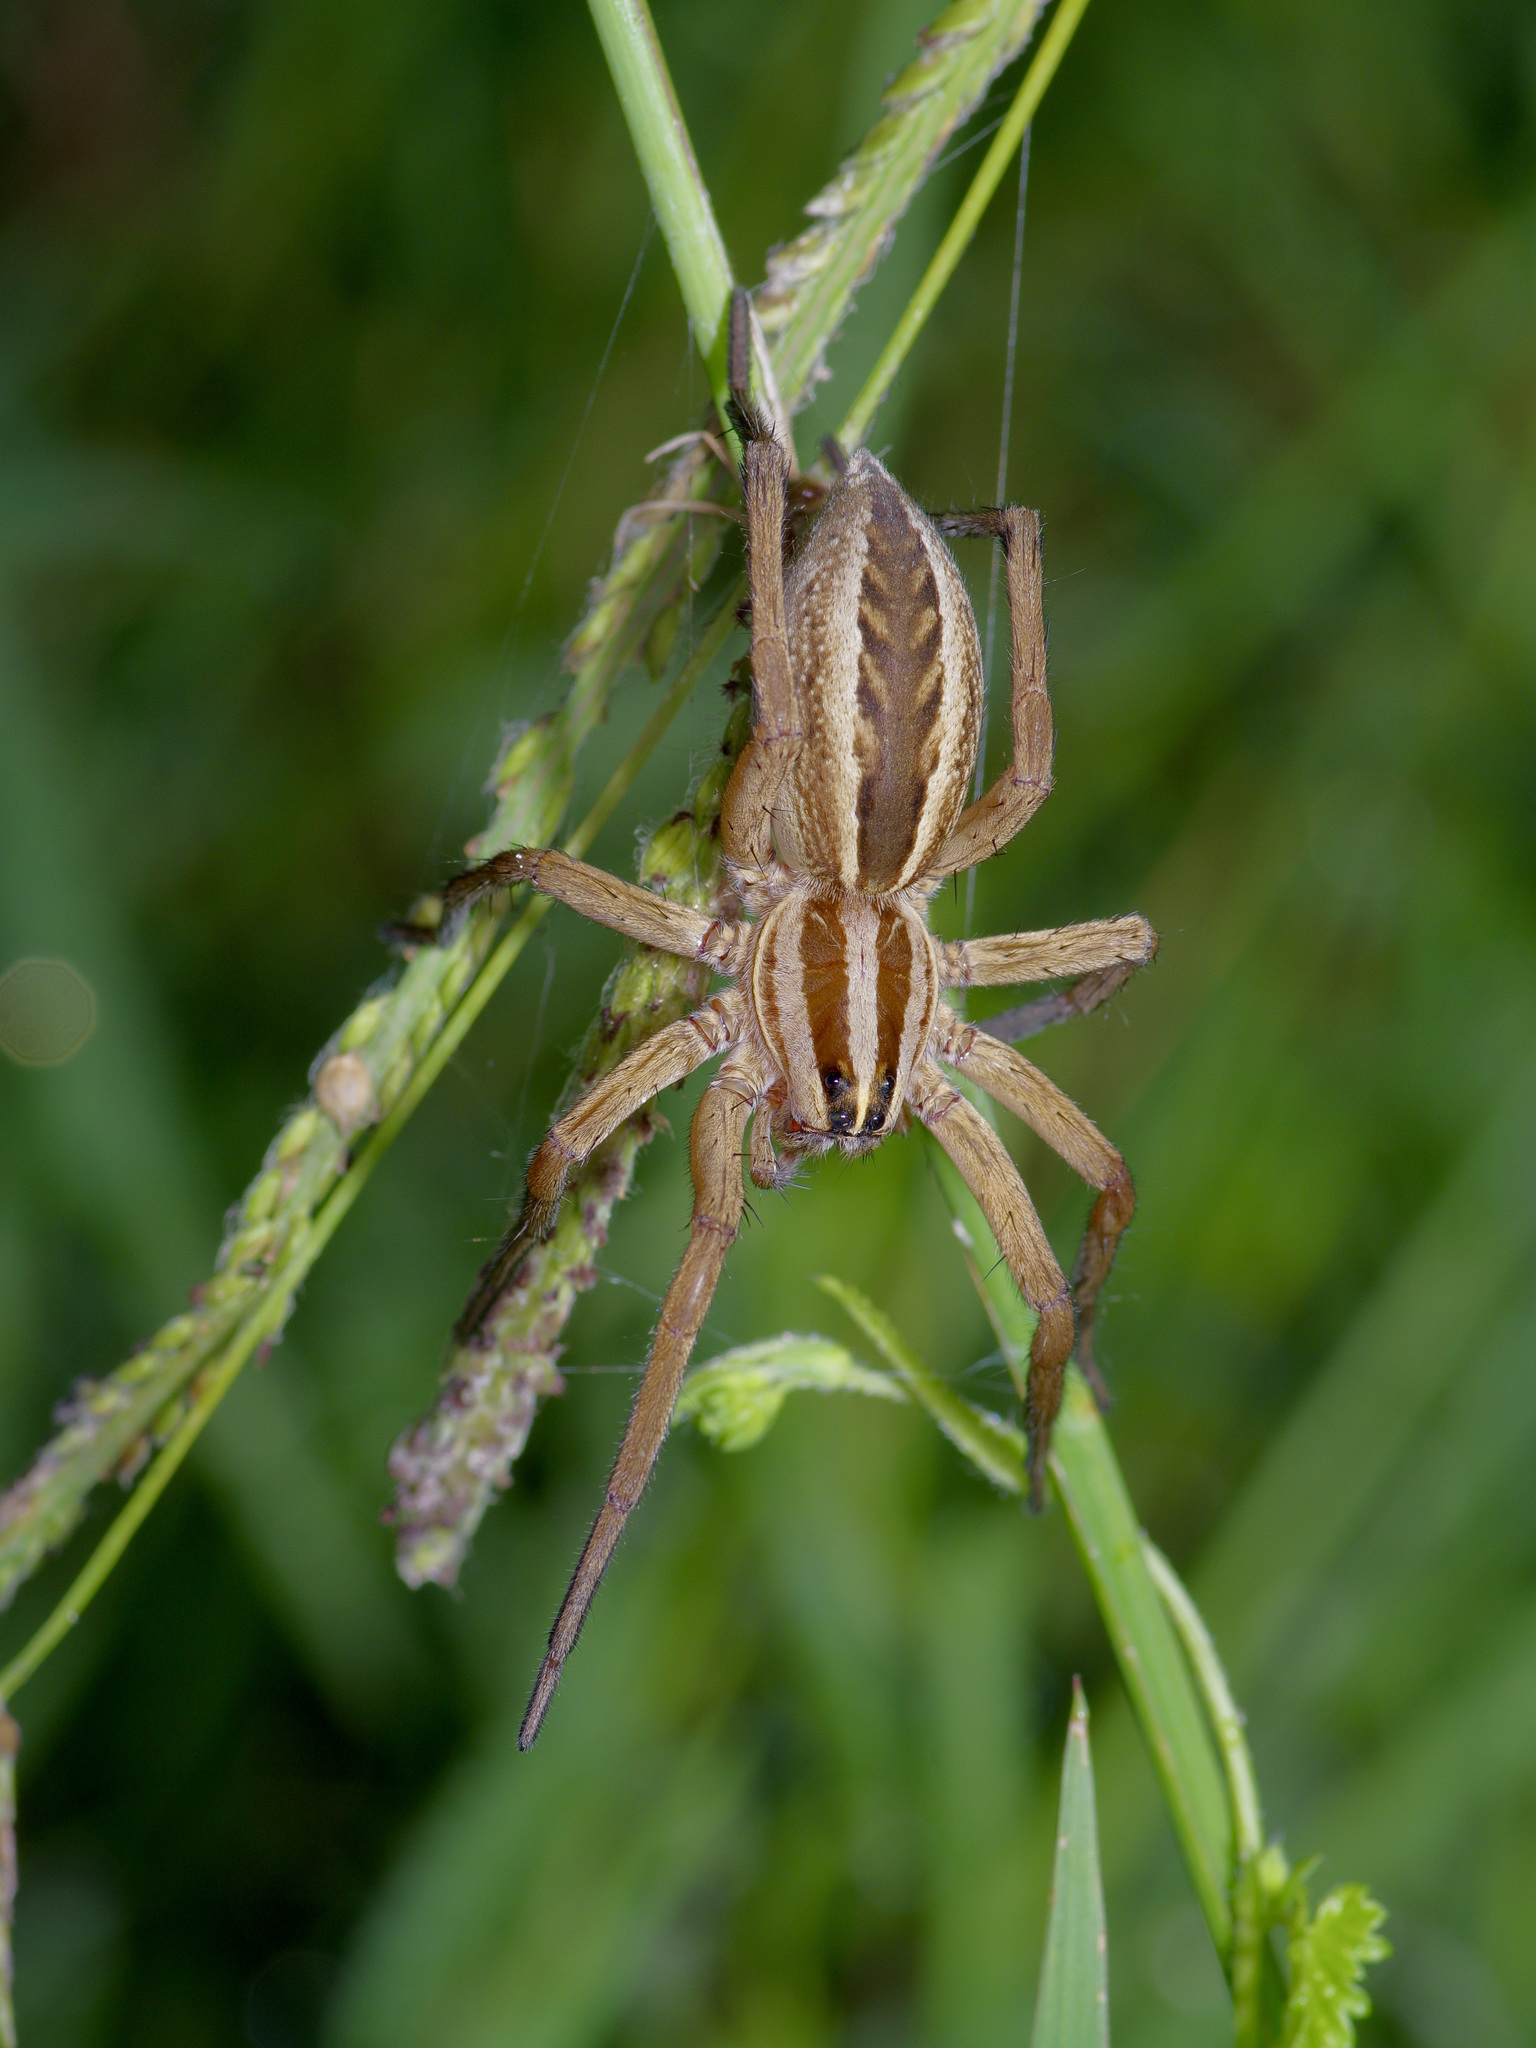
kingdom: Animalia
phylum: Arthropoda
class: Arachnida
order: Araneae
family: Lycosidae
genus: Rabidosa
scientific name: Rabidosa rabida
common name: Rabid wolf spider
